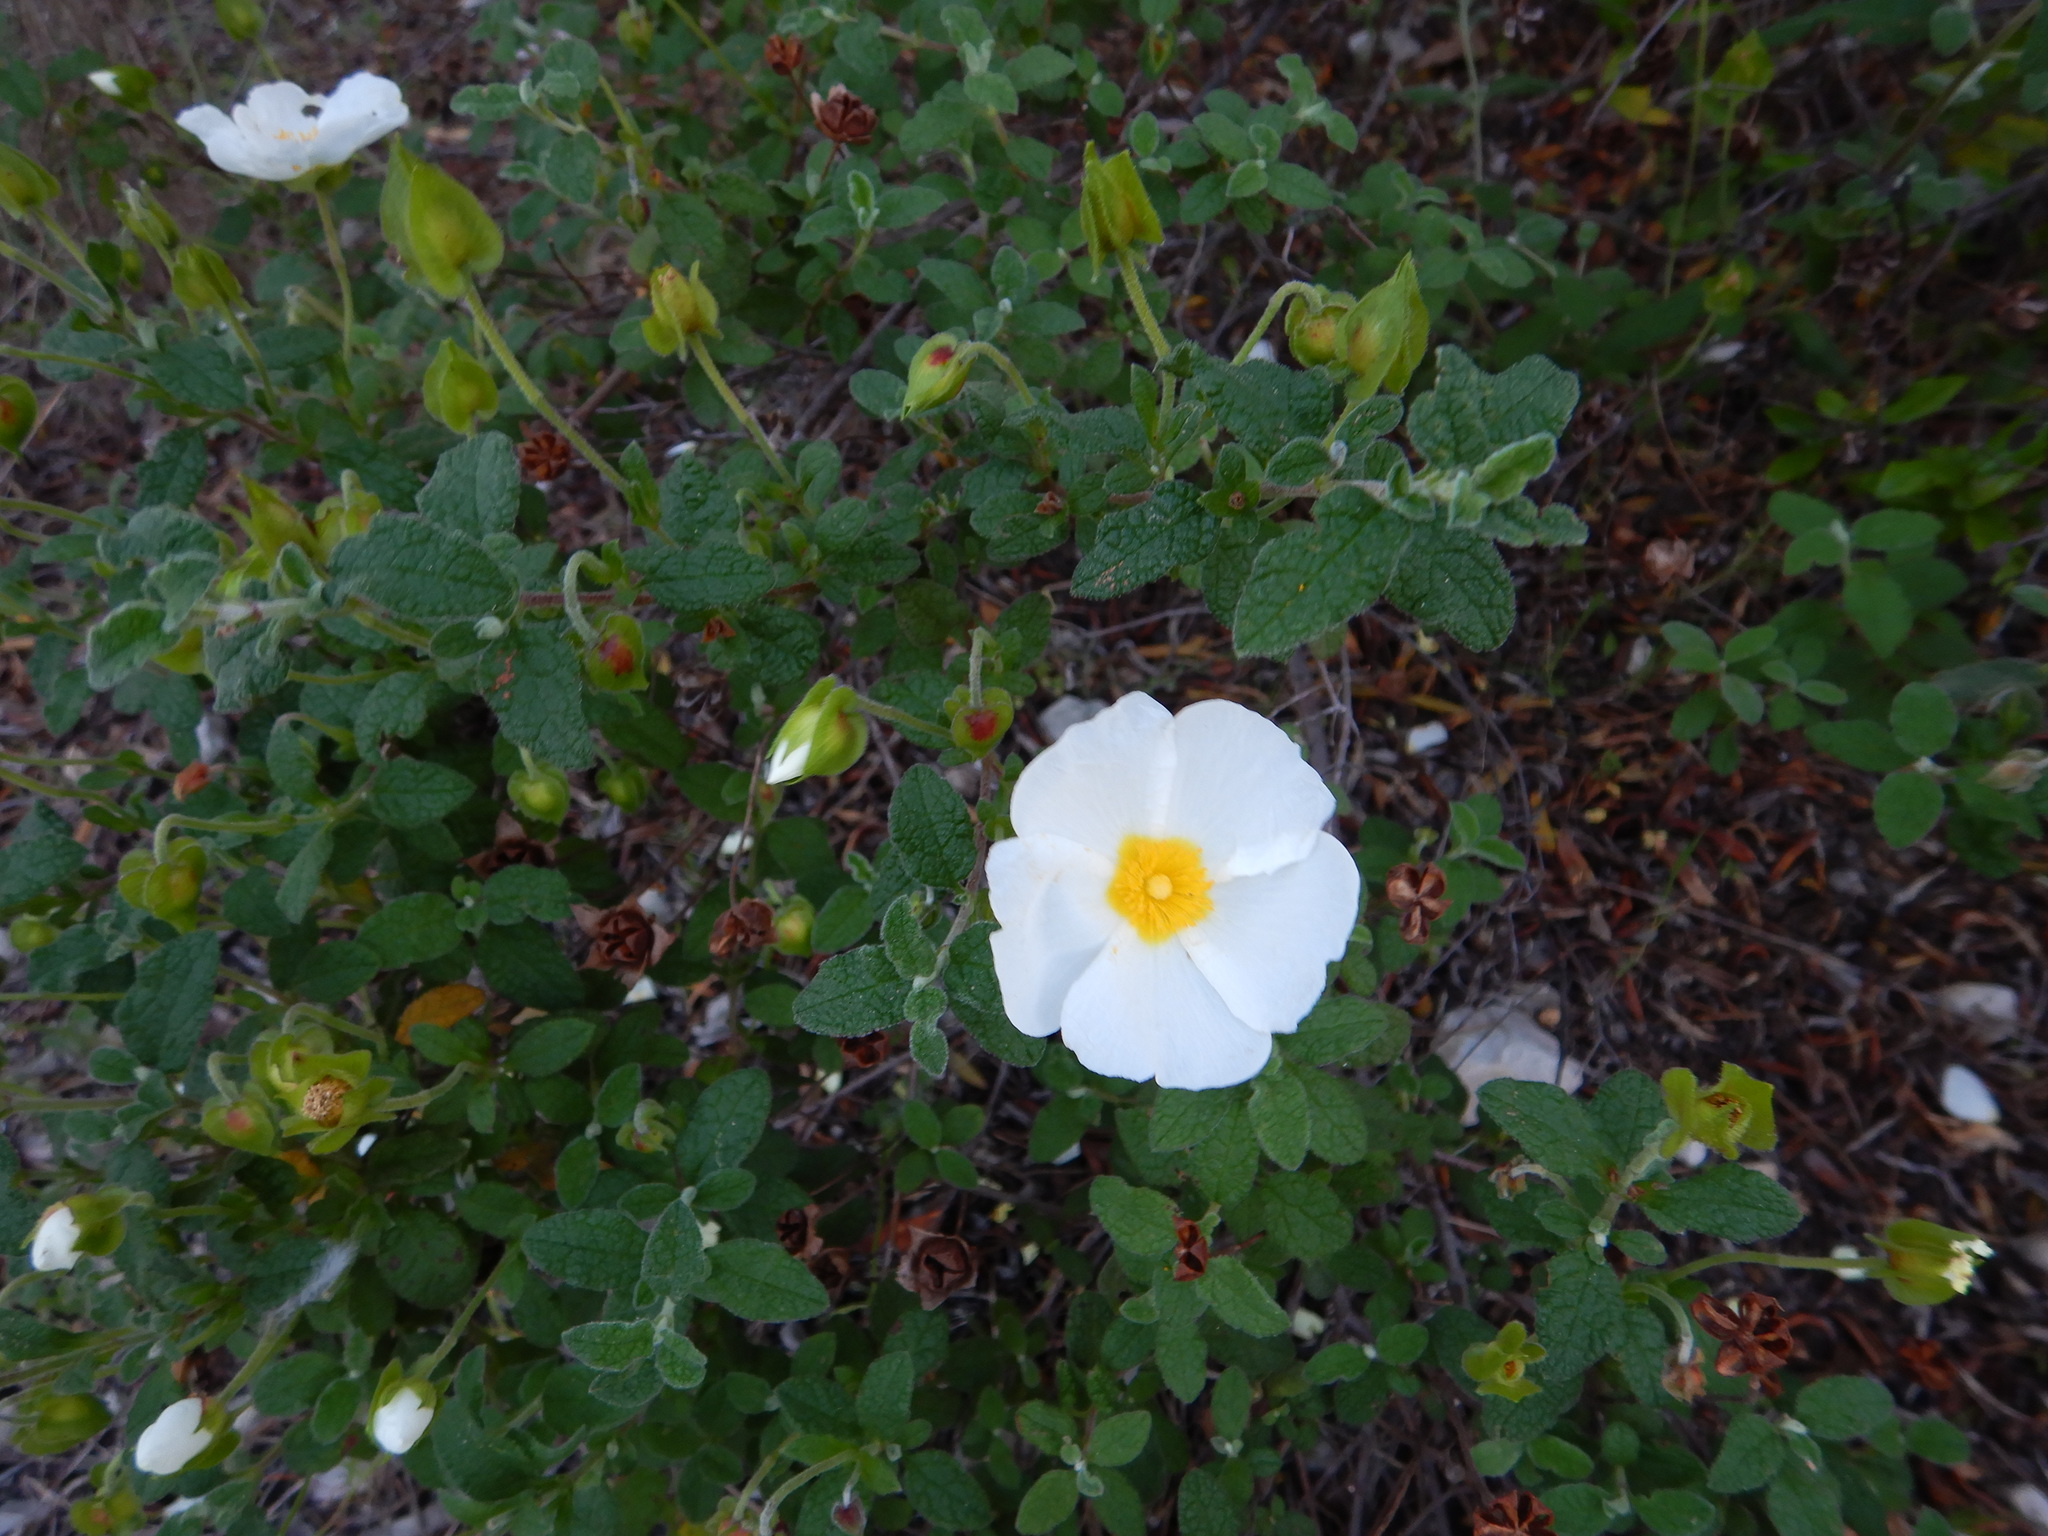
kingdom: Plantae
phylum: Tracheophyta
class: Magnoliopsida
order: Malvales
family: Cistaceae
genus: Cistus
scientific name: Cistus salviifolius
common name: Salvia cistus
